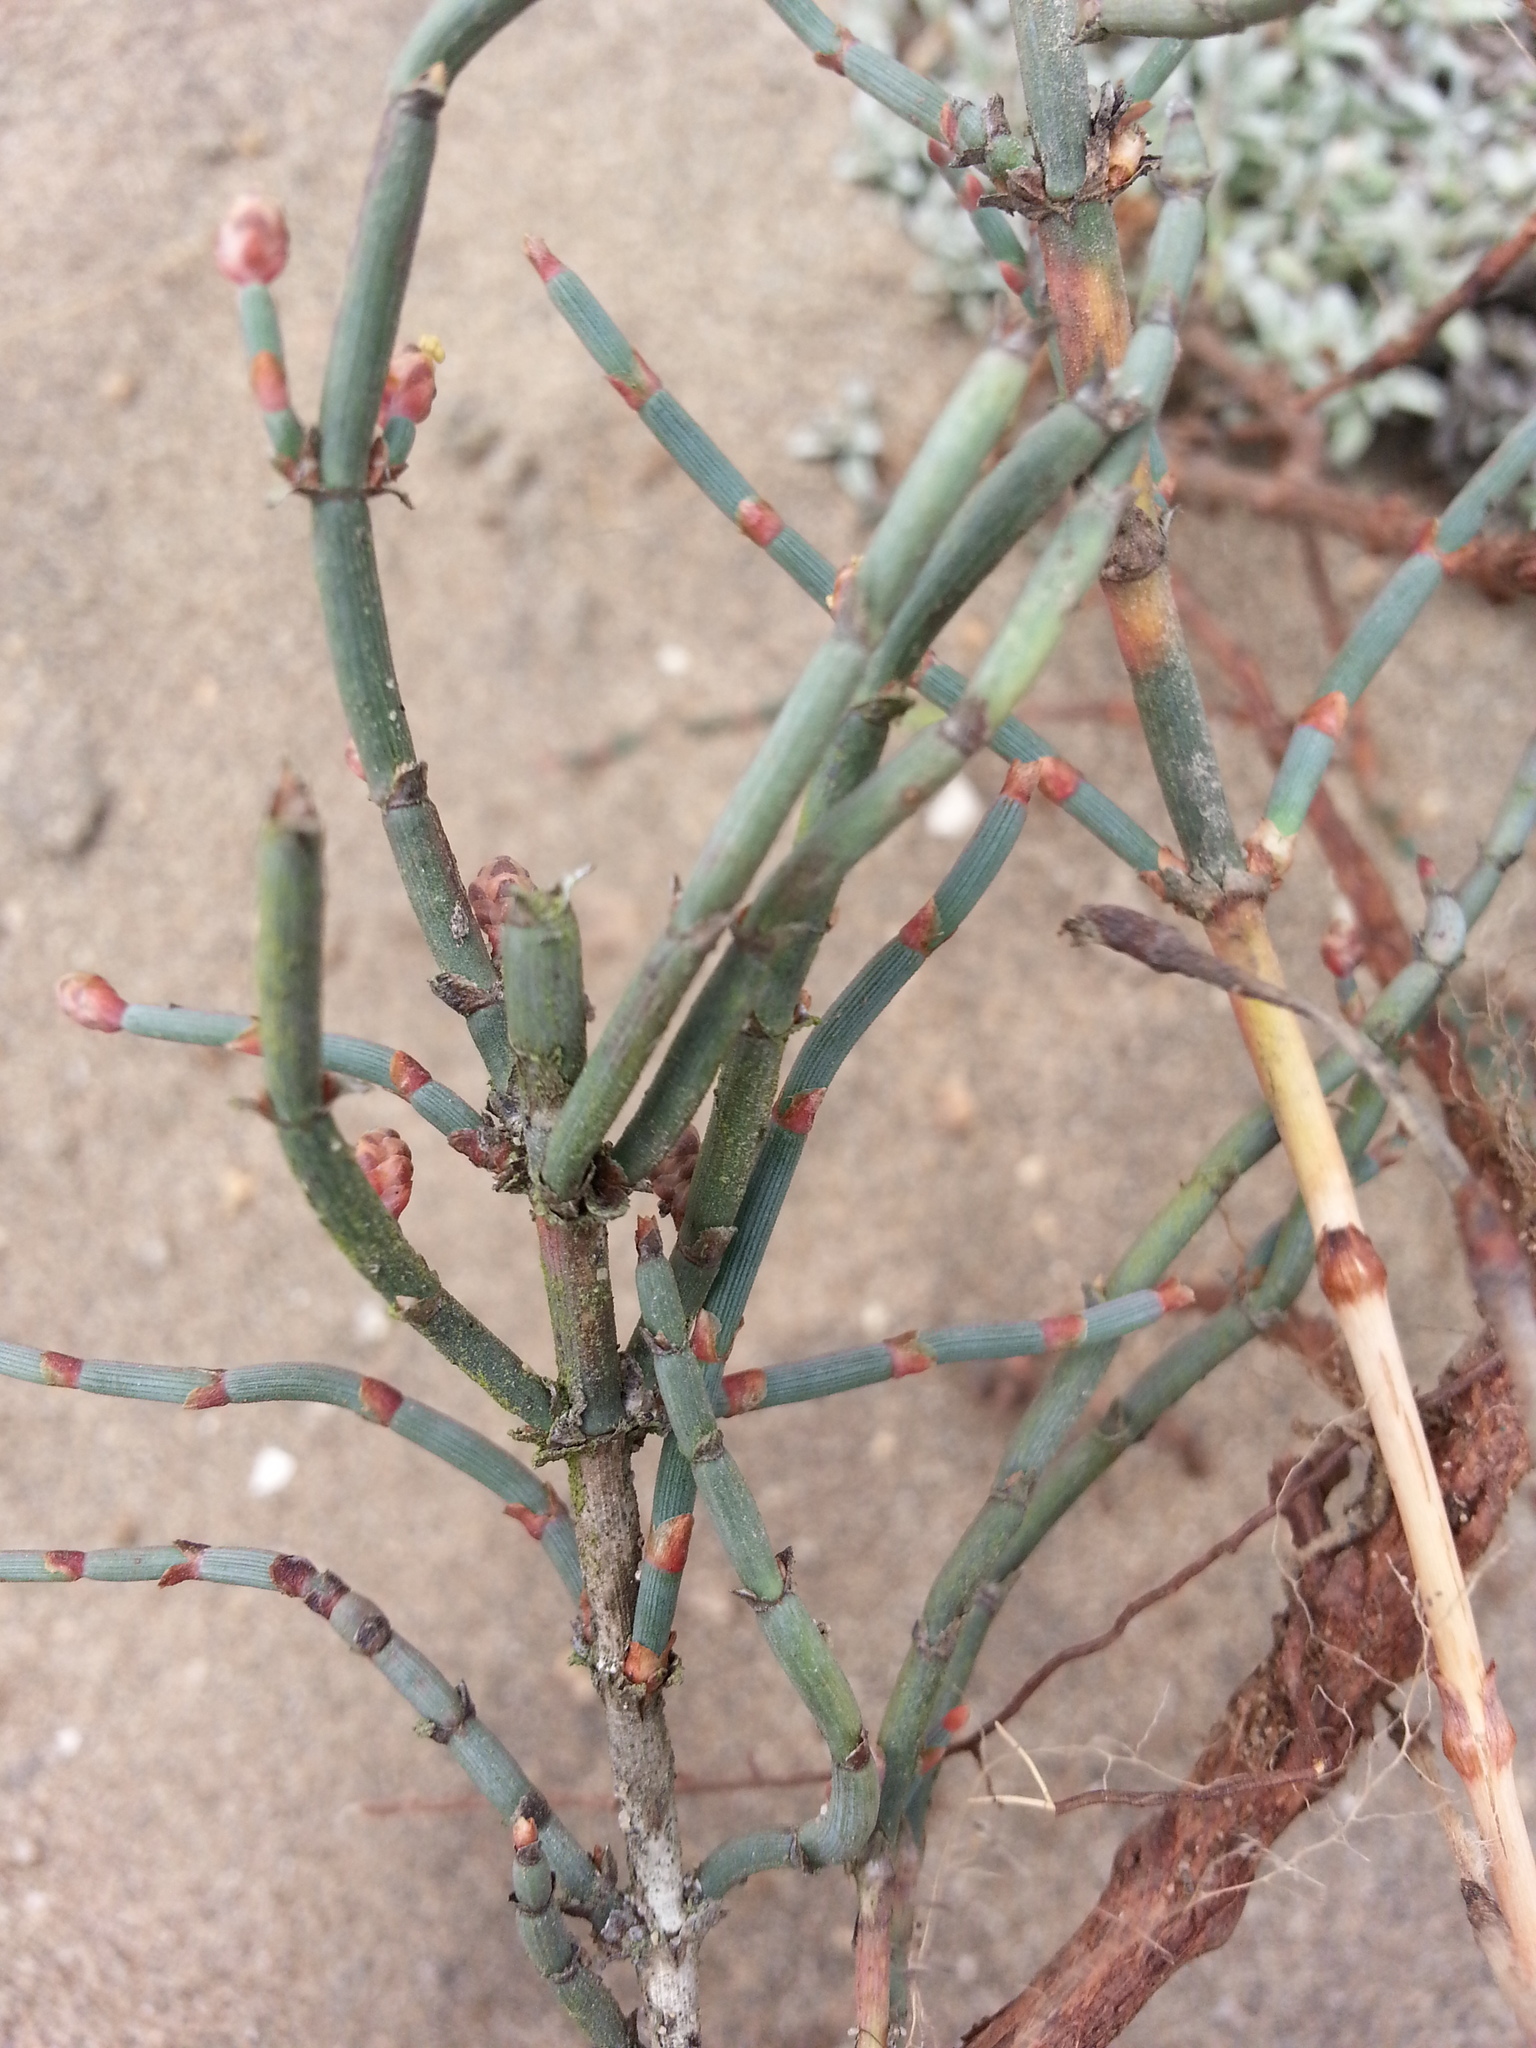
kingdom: Plantae
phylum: Tracheophyta
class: Gnetopsida
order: Ephedrales
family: Ephedraceae
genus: Ephedra
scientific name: Ephedra americana
